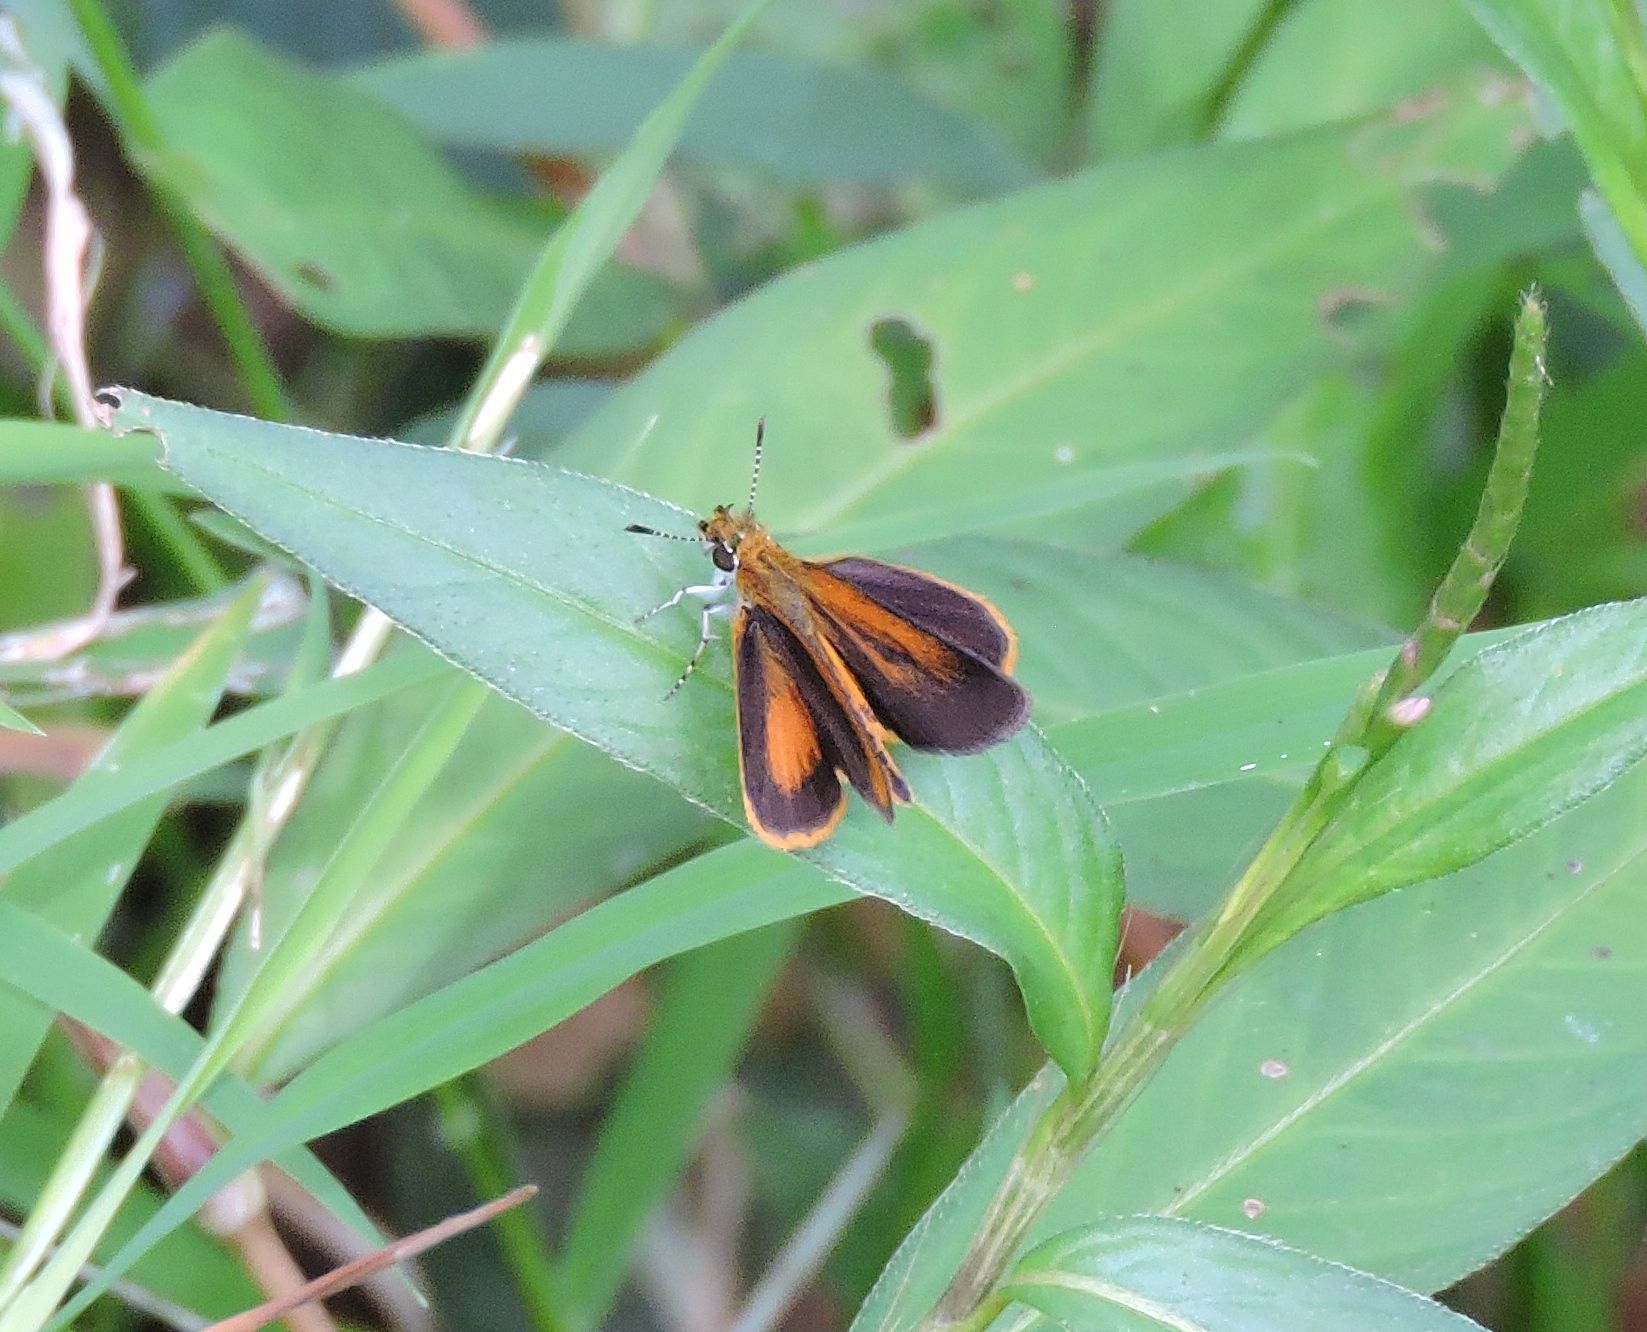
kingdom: Animalia
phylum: Arthropoda
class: Insecta
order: Lepidoptera
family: Hesperiidae
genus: Ancyloxypha
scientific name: Ancyloxypha numitor
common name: Least skipper
